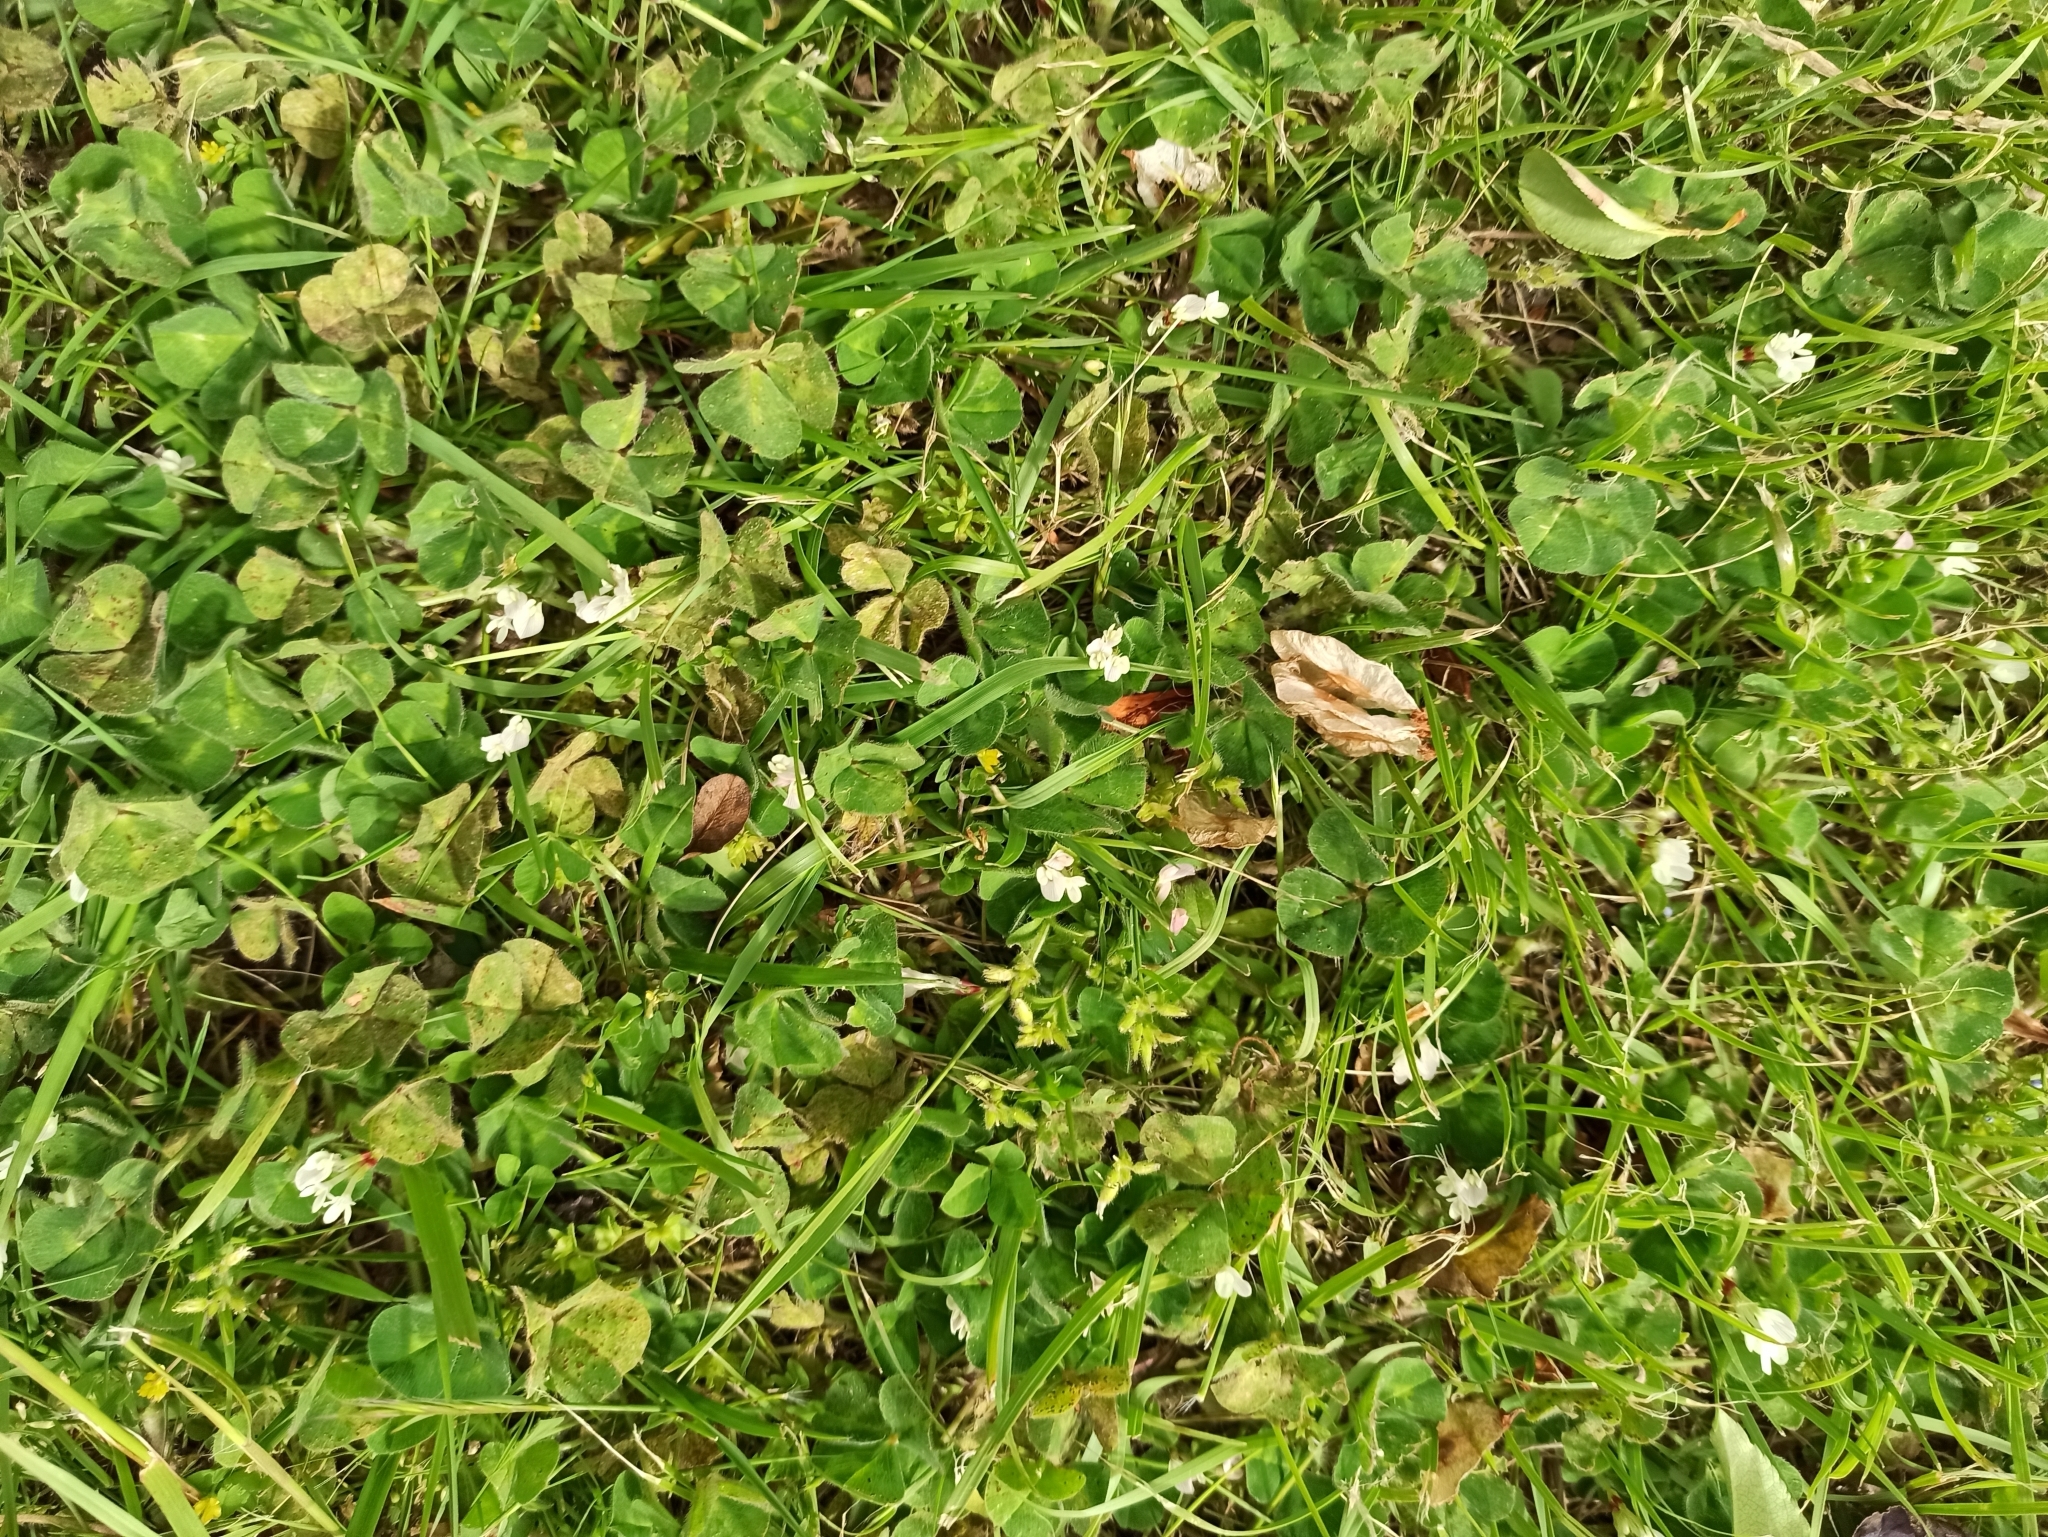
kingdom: Plantae
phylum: Tracheophyta
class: Magnoliopsida
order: Fabales
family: Fabaceae
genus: Trifolium
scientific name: Trifolium subterraneum
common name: Subterranean clover
